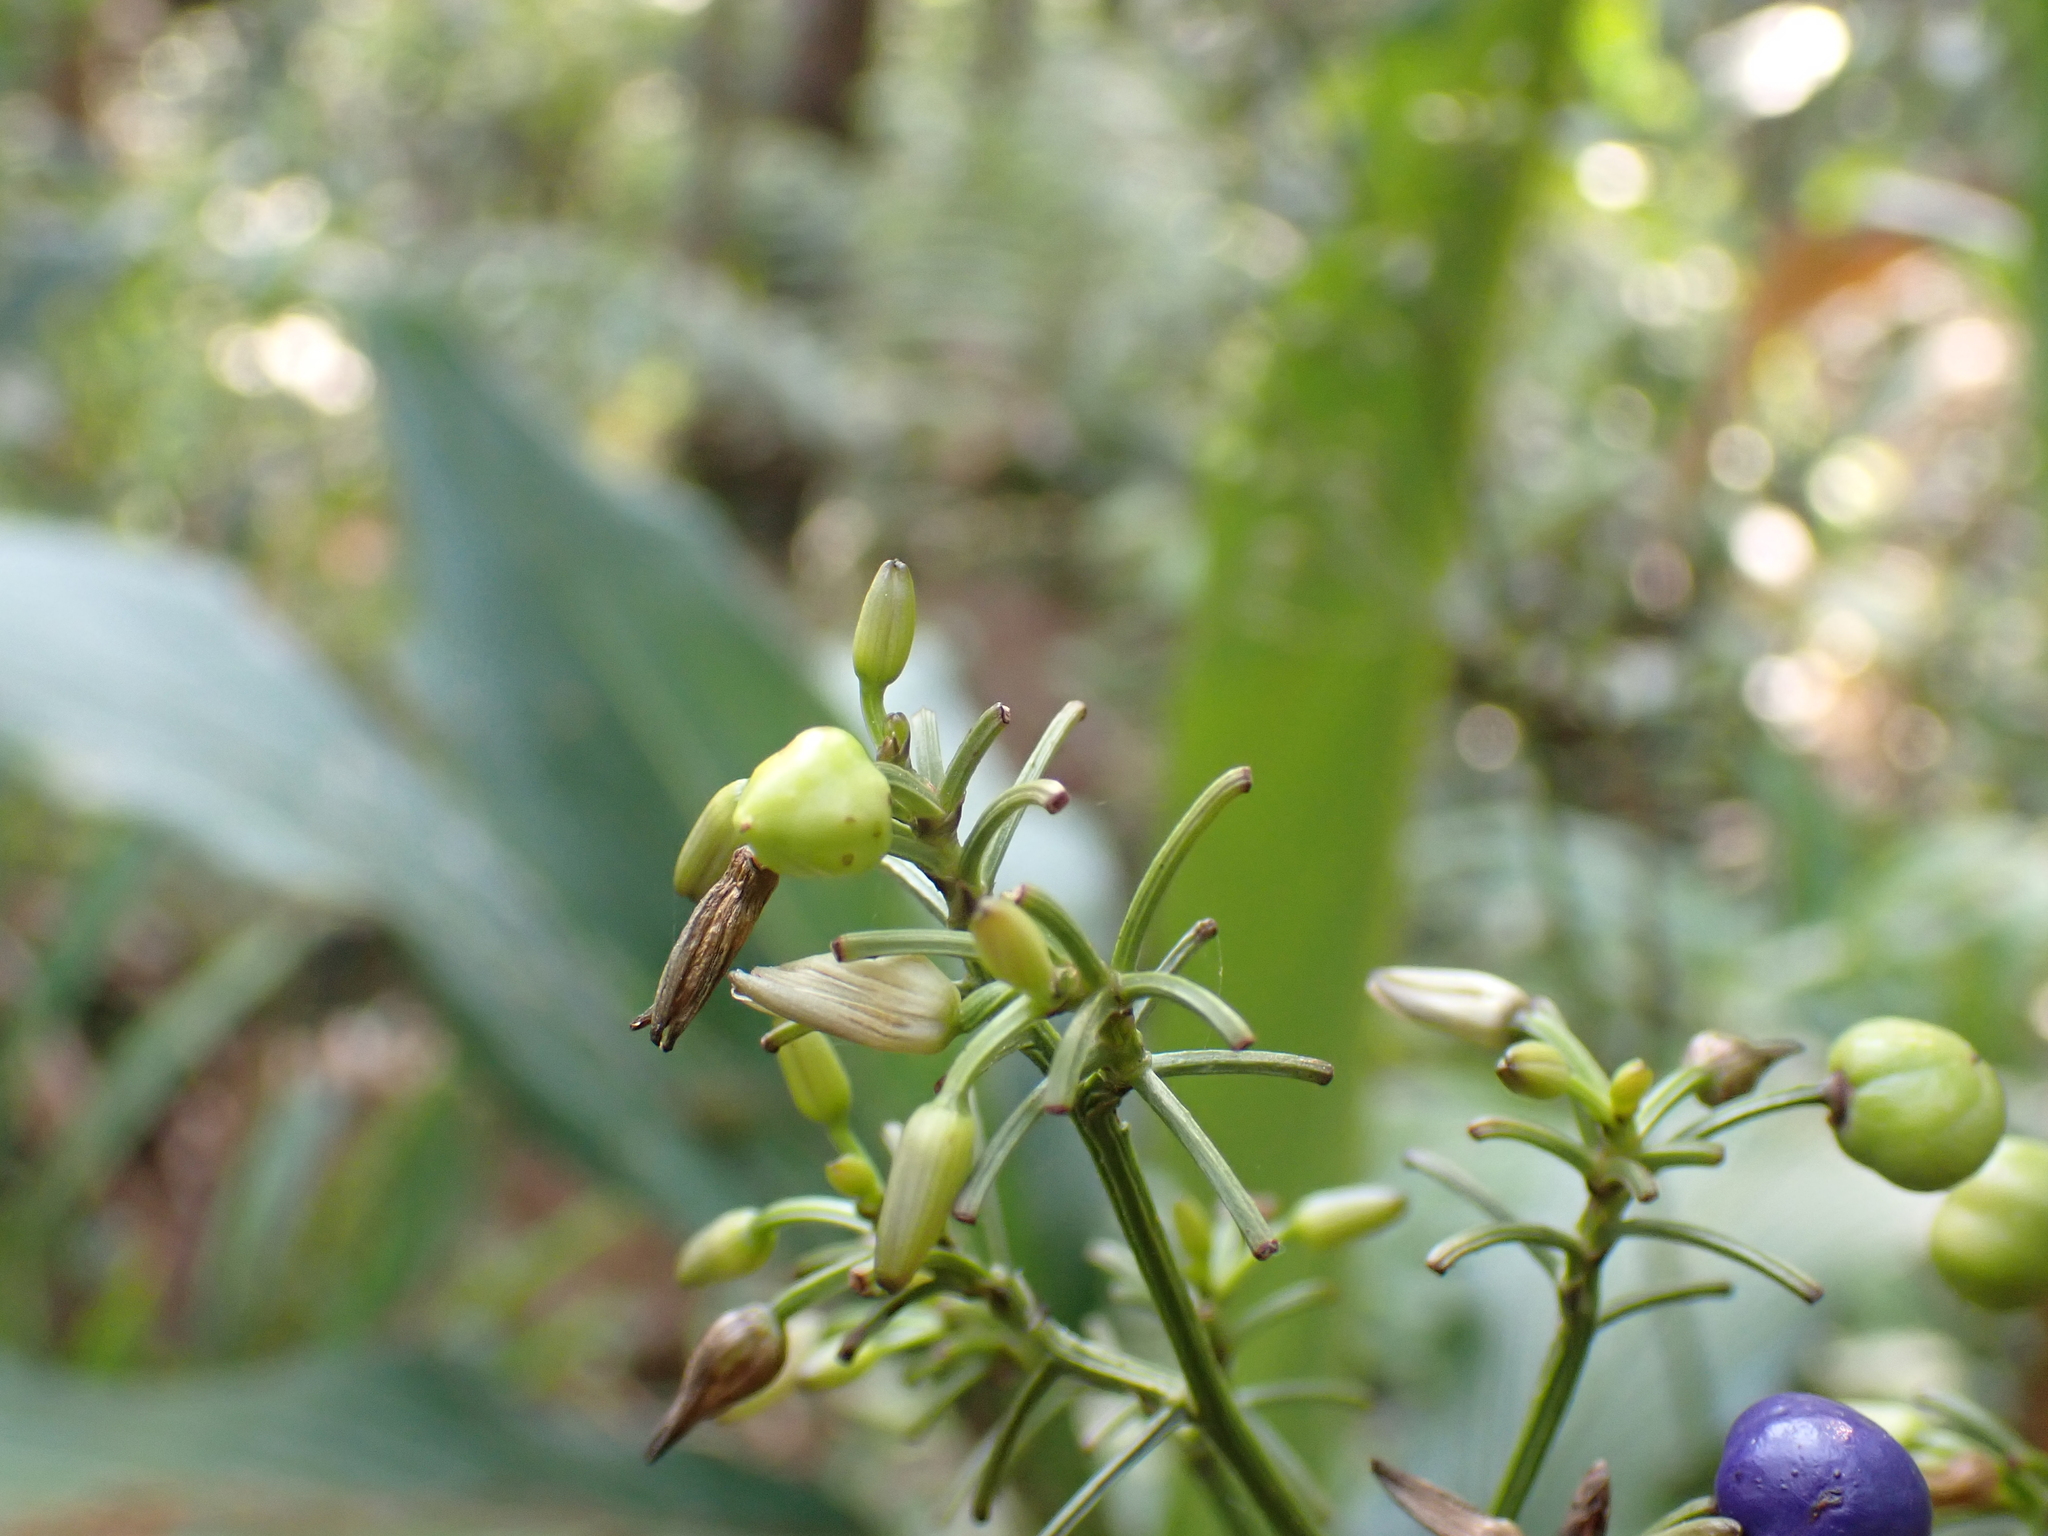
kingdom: Plantae
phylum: Tracheophyta
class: Liliopsida
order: Asparagales
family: Asphodelaceae
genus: Dianella
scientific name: Dianella ensifolia
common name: New zealand lilyplant
